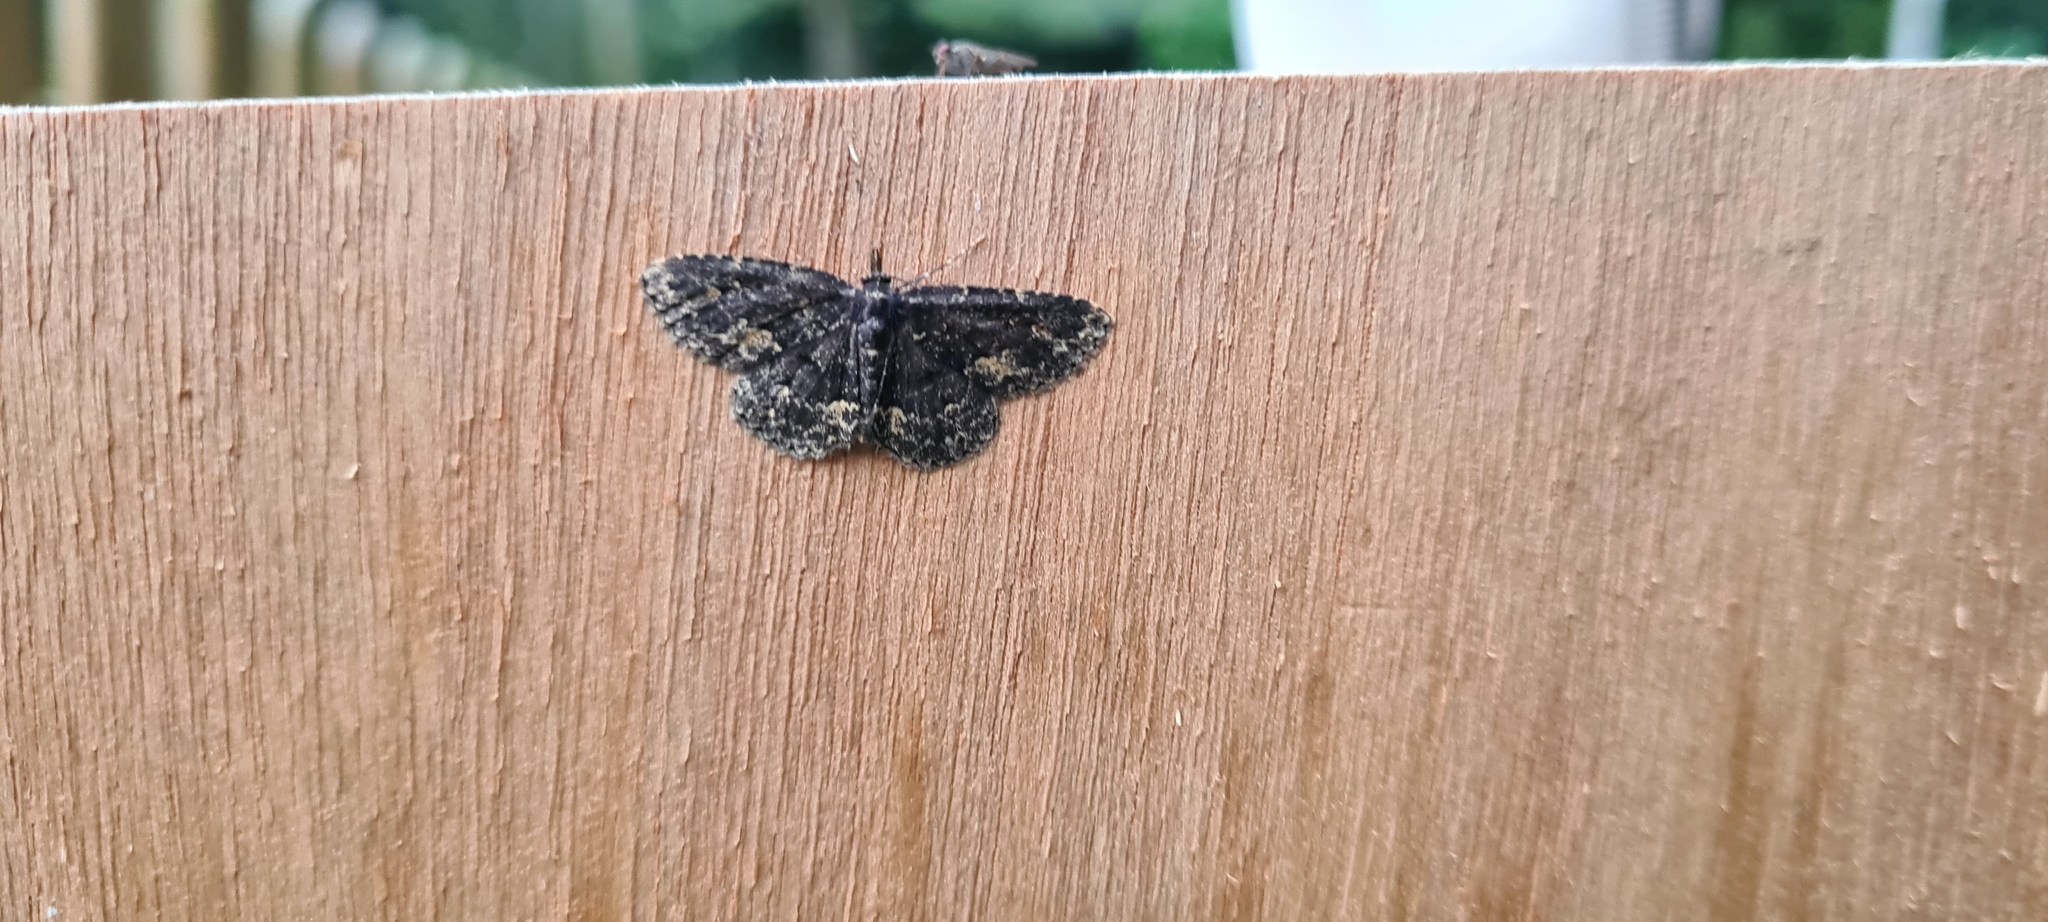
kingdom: Animalia
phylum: Arthropoda
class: Insecta
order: Lepidoptera
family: Erebidae
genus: Parascotia
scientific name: Parascotia fuliginaria
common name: Waved black
